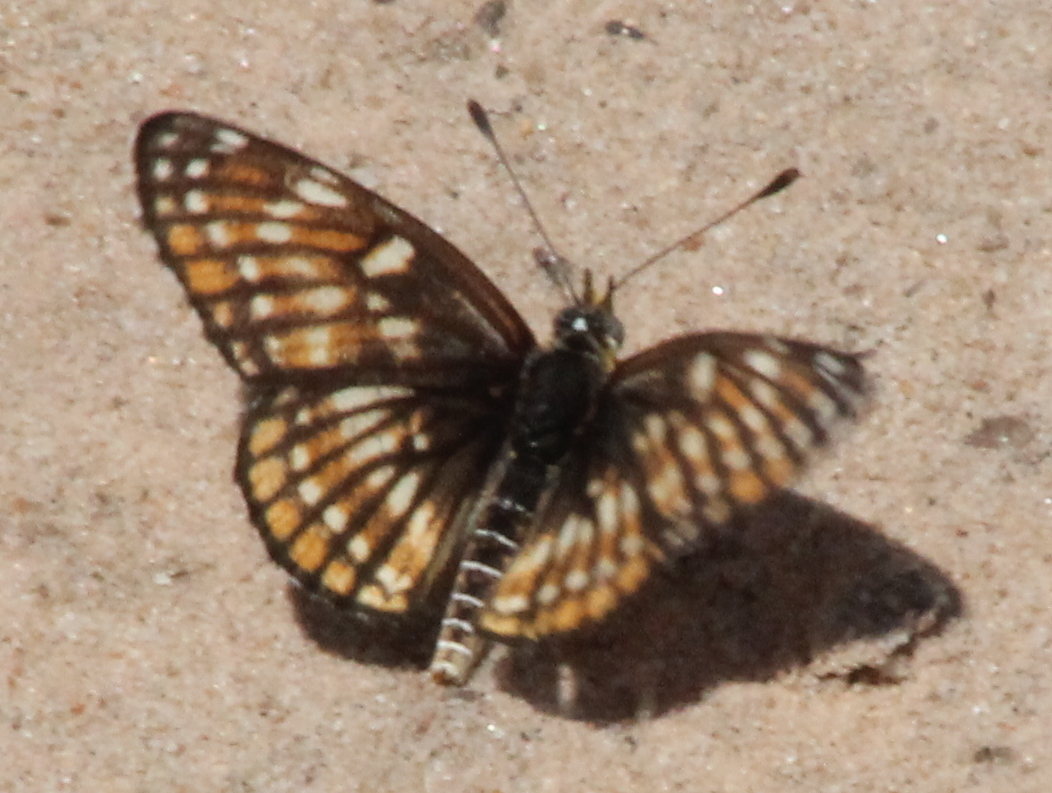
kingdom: Animalia
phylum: Arthropoda
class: Insecta
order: Lepidoptera
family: Nymphalidae
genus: Thessalia
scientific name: Thessalia leanira
